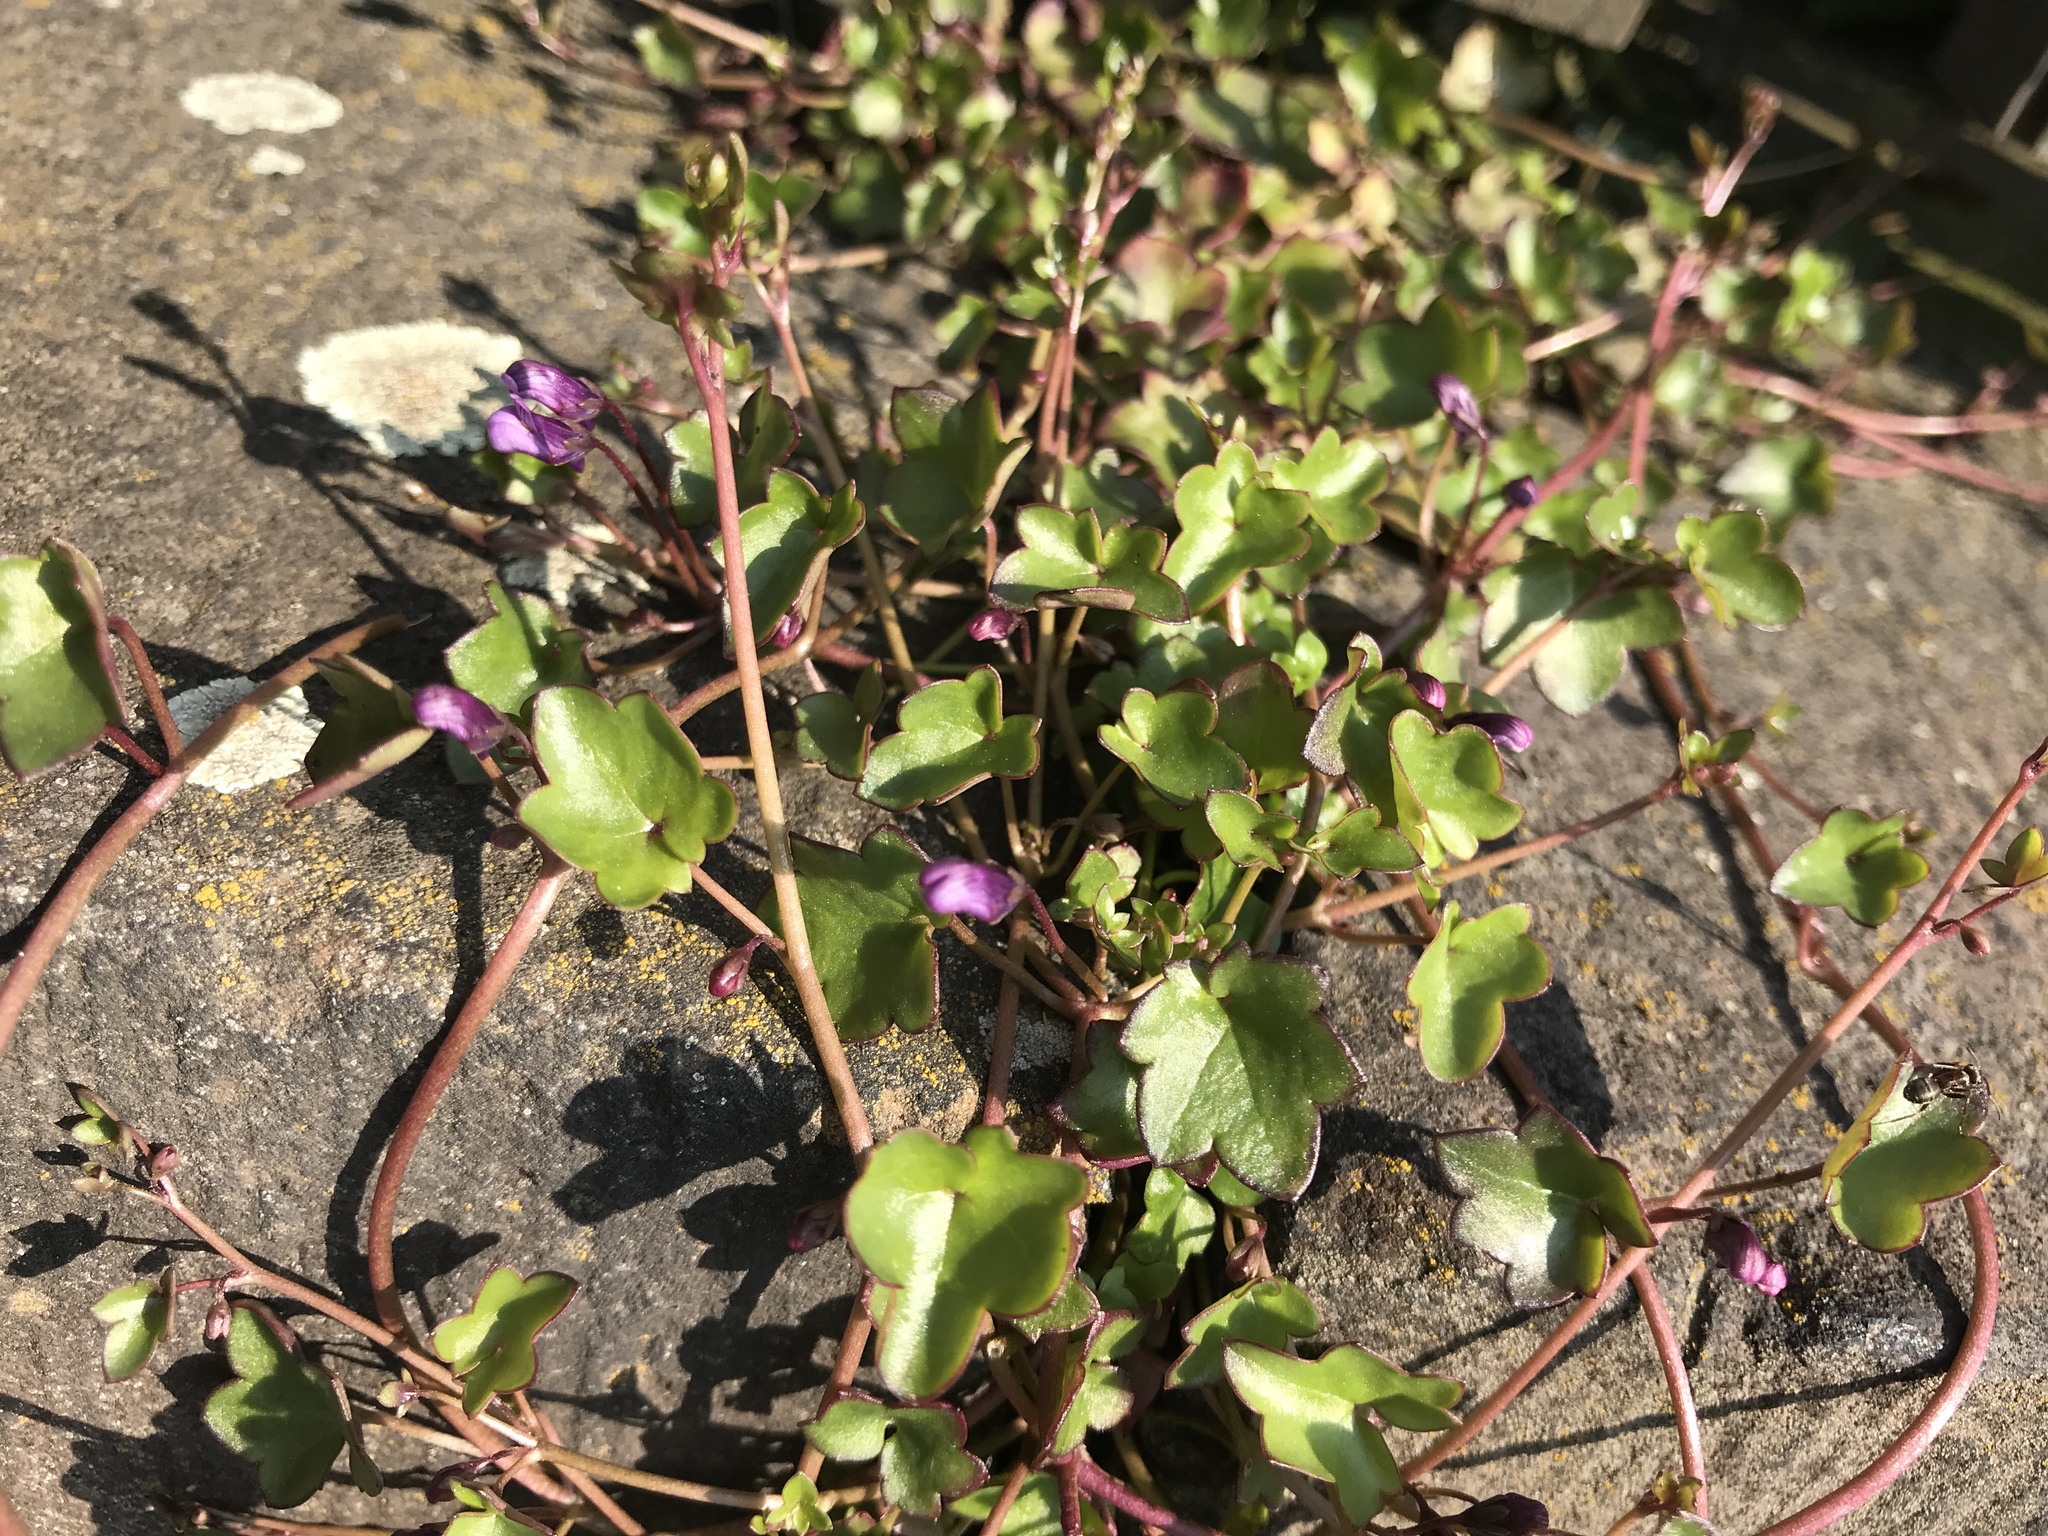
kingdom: Plantae
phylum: Tracheophyta
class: Magnoliopsida
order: Lamiales
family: Plantaginaceae
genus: Cymbalaria
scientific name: Cymbalaria muralis
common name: Ivy-leaved toadflax
